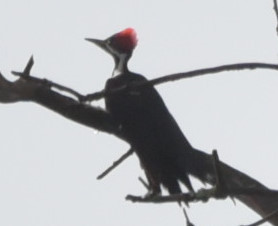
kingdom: Animalia
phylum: Chordata
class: Aves
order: Piciformes
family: Picidae
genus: Dryocopus
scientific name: Dryocopus pileatus
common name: Pileated woodpecker
